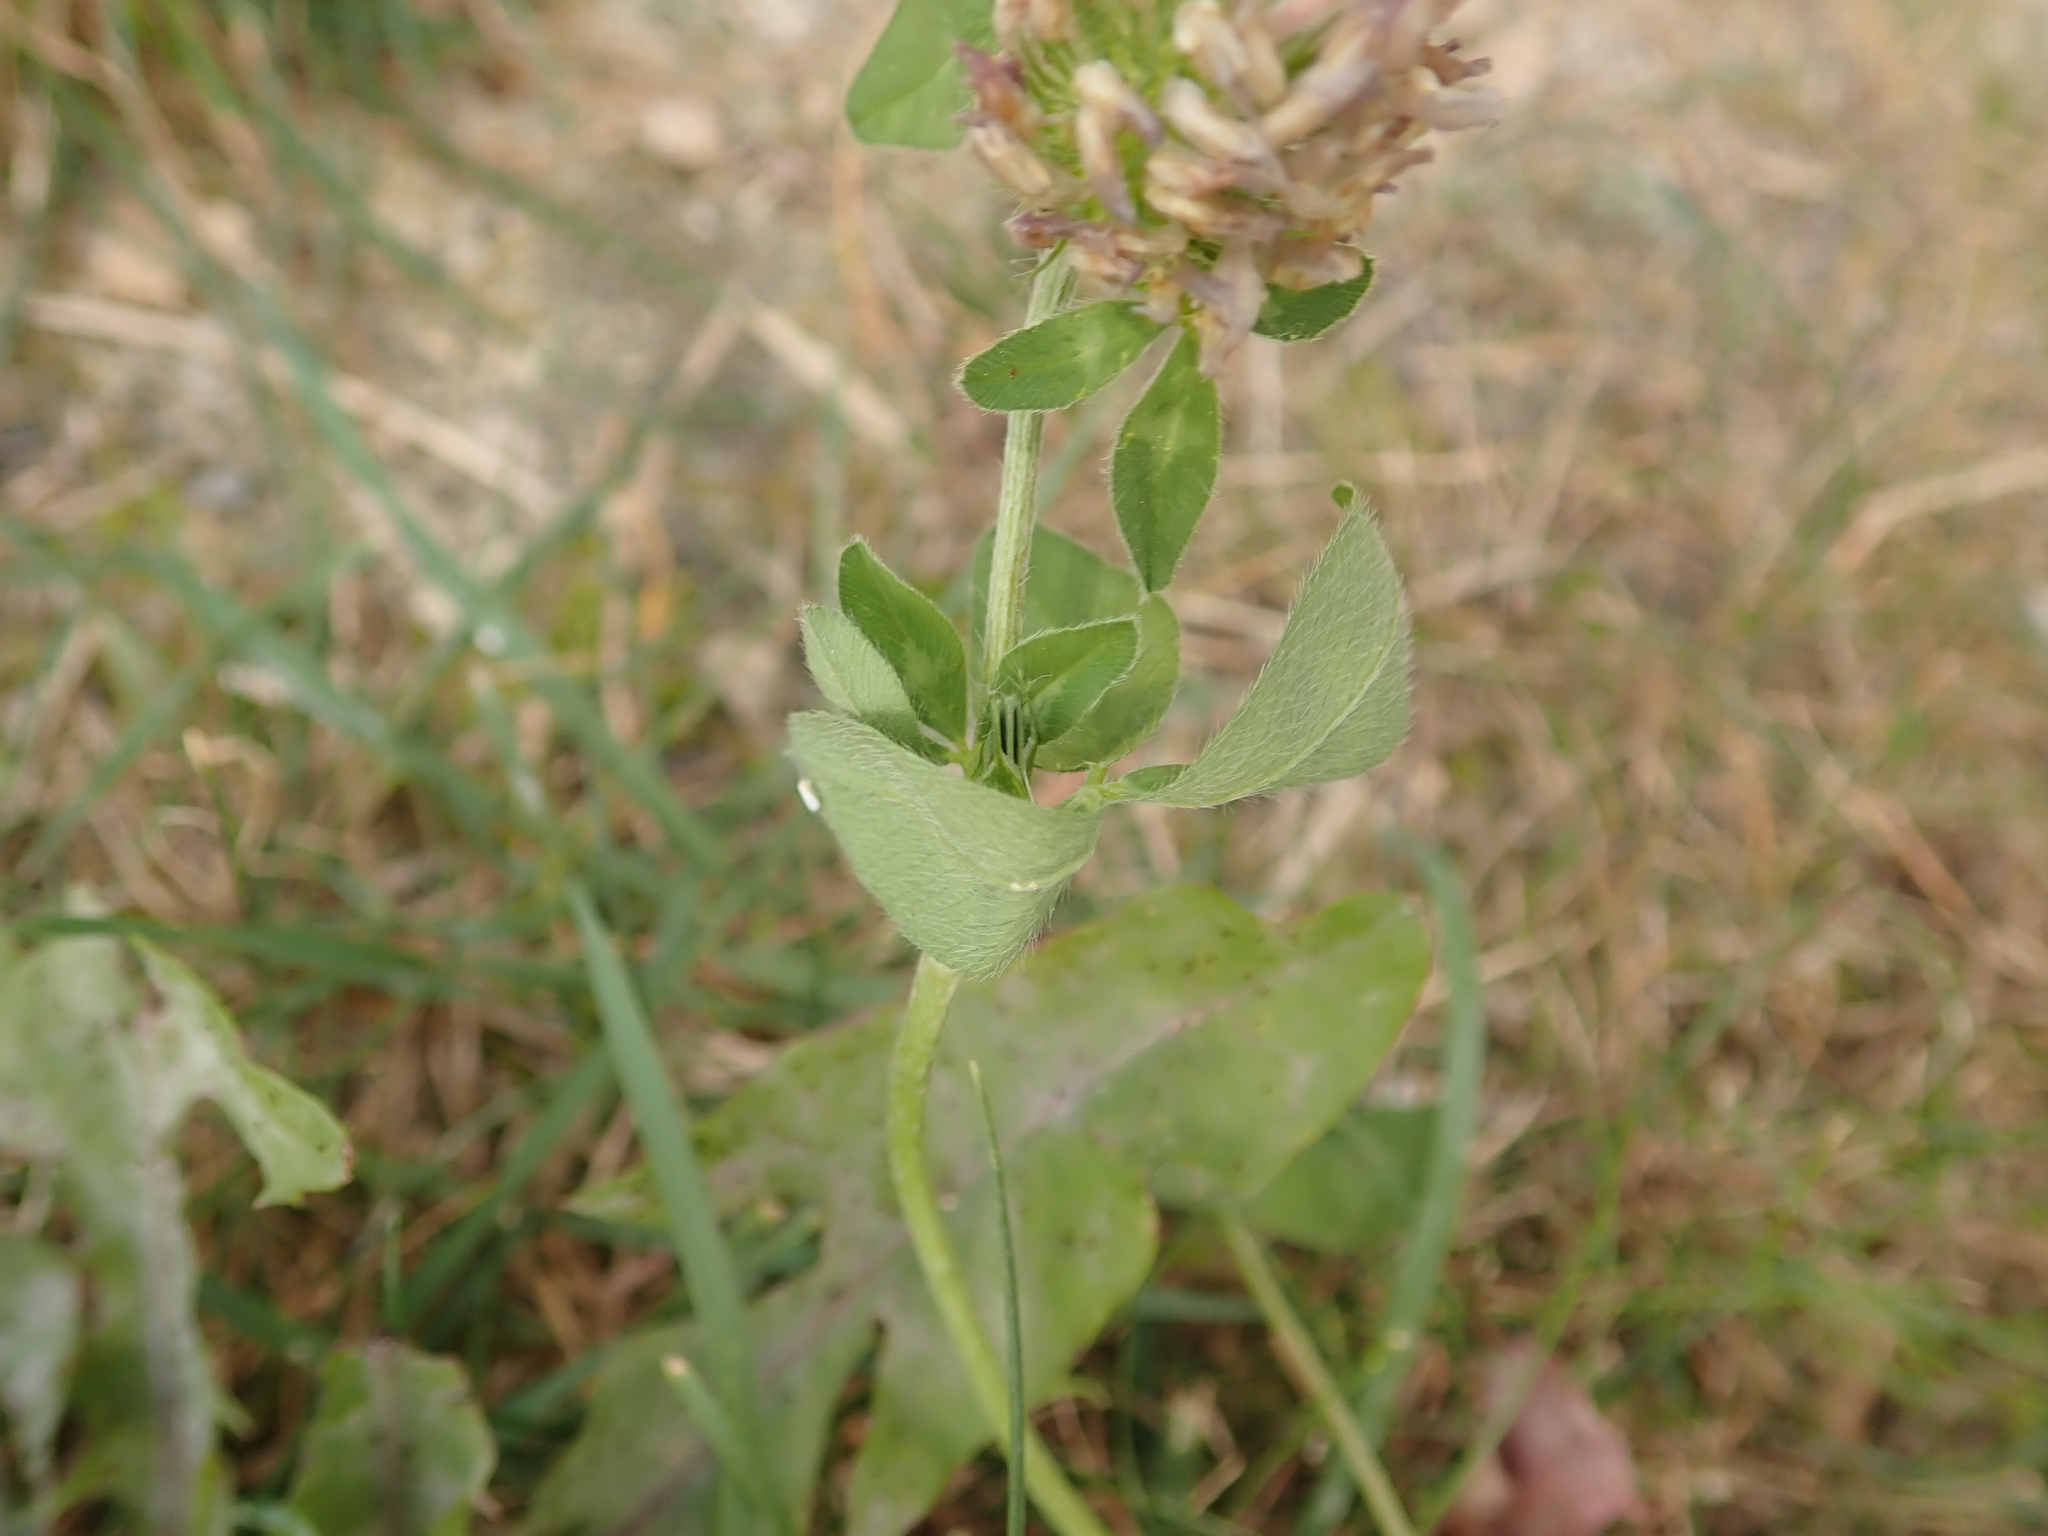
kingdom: Plantae
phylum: Tracheophyta
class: Magnoliopsida
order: Fabales
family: Fabaceae
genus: Trifolium
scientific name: Trifolium pratense
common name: Red clover
